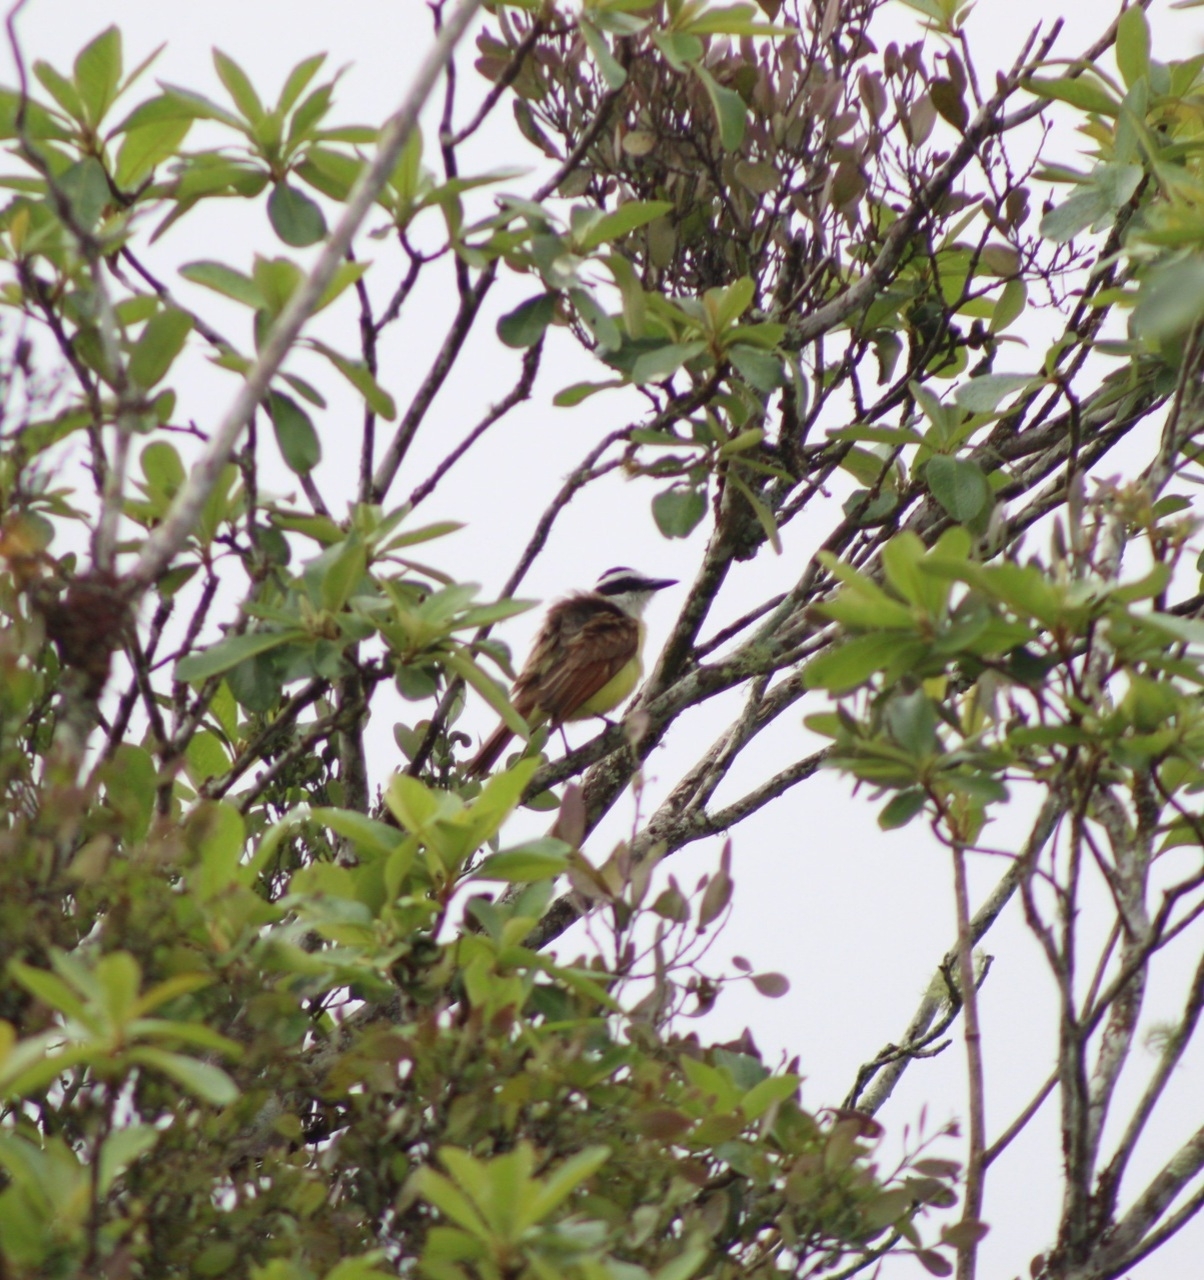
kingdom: Animalia
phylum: Chordata
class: Aves
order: Passeriformes
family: Tyrannidae
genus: Pitangus
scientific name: Pitangus sulphuratus
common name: Great kiskadee
